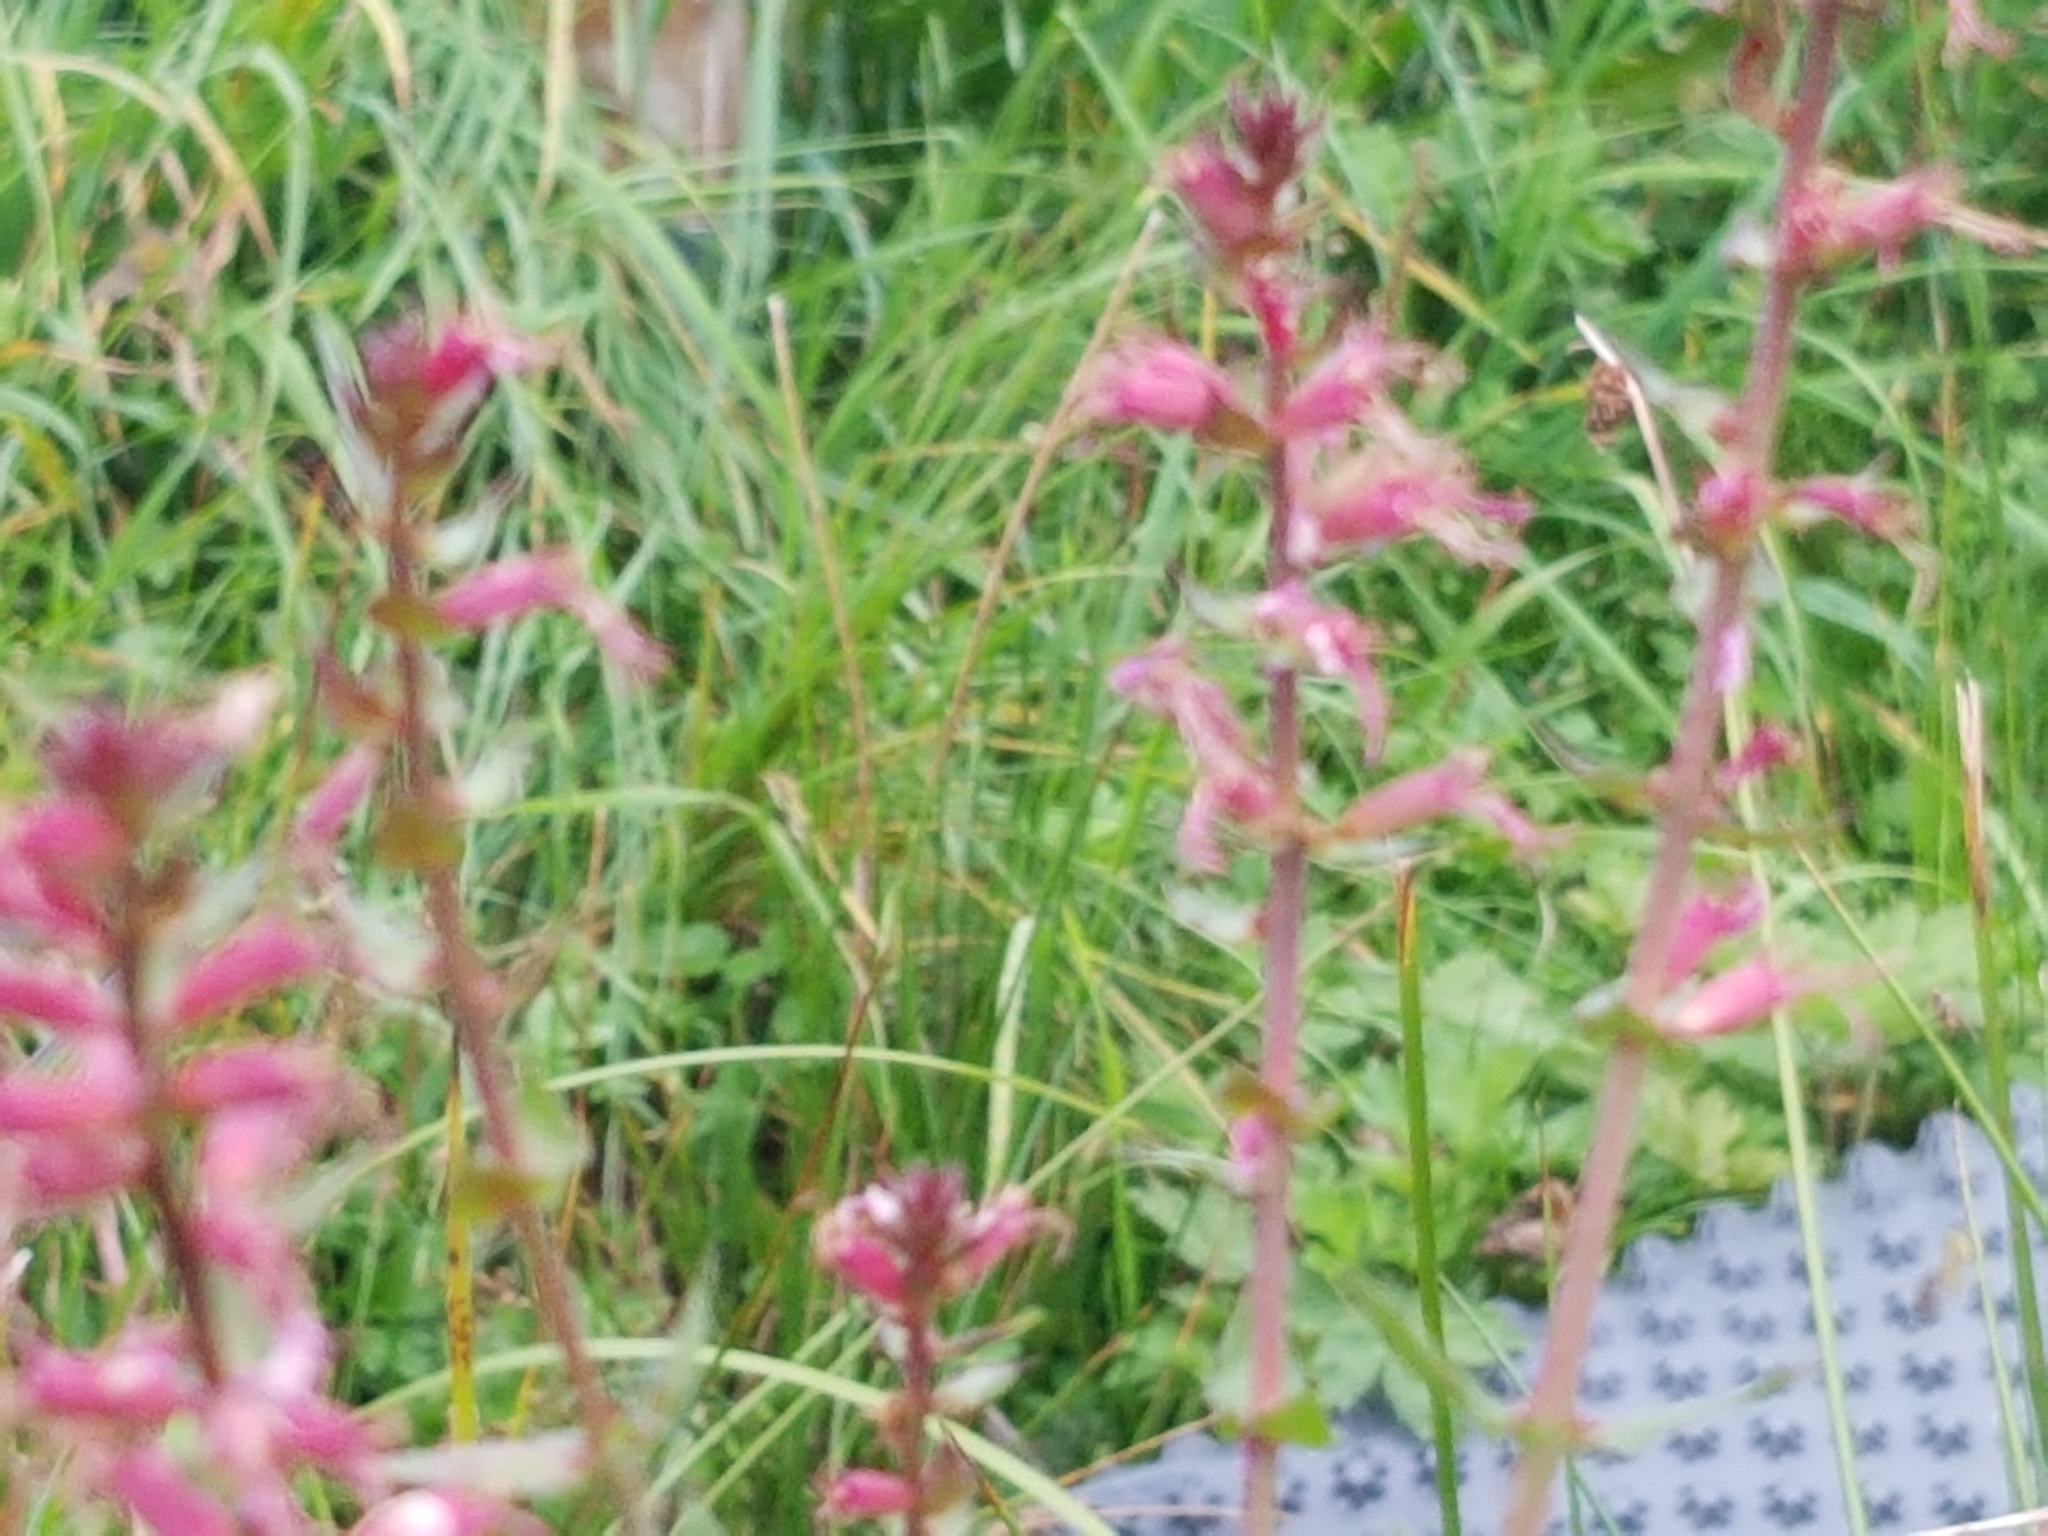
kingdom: Plantae
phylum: Tracheophyta
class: Magnoliopsida
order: Myrtales
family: Lythraceae
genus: Lythrum
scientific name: Lythrum salicaria
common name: Purple loosestrife
